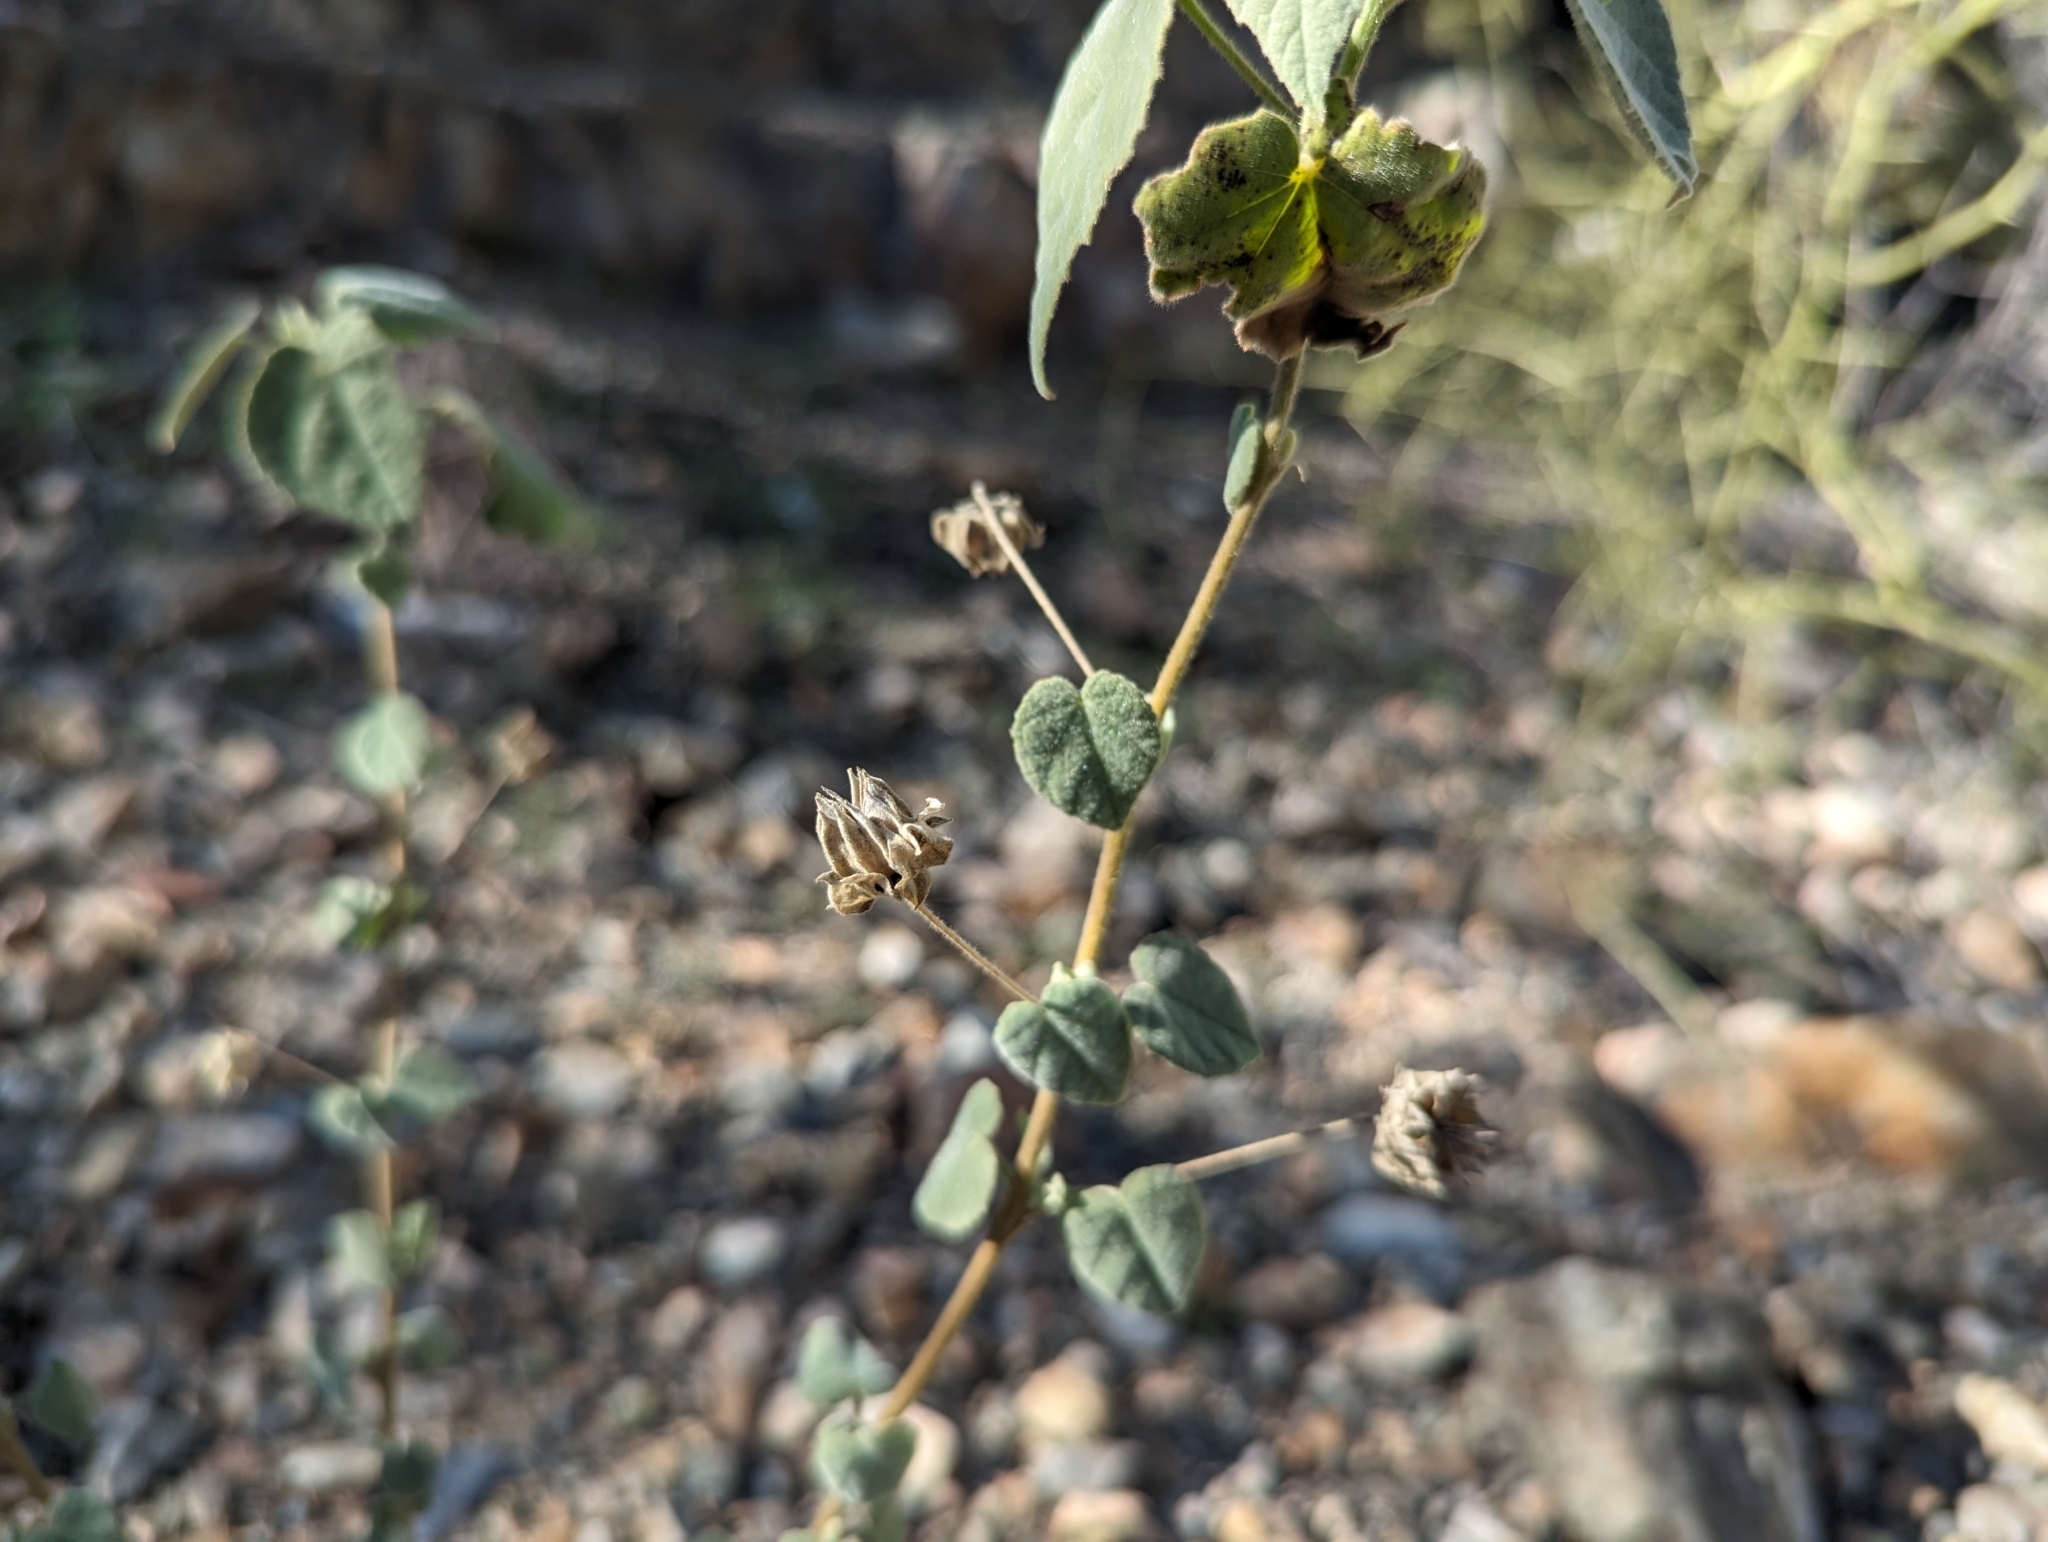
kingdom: Plantae
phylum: Tracheophyta
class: Magnoliopsida
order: Malvales
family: Malvaceae
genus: Abutilon
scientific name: Abutilon abutiloides
